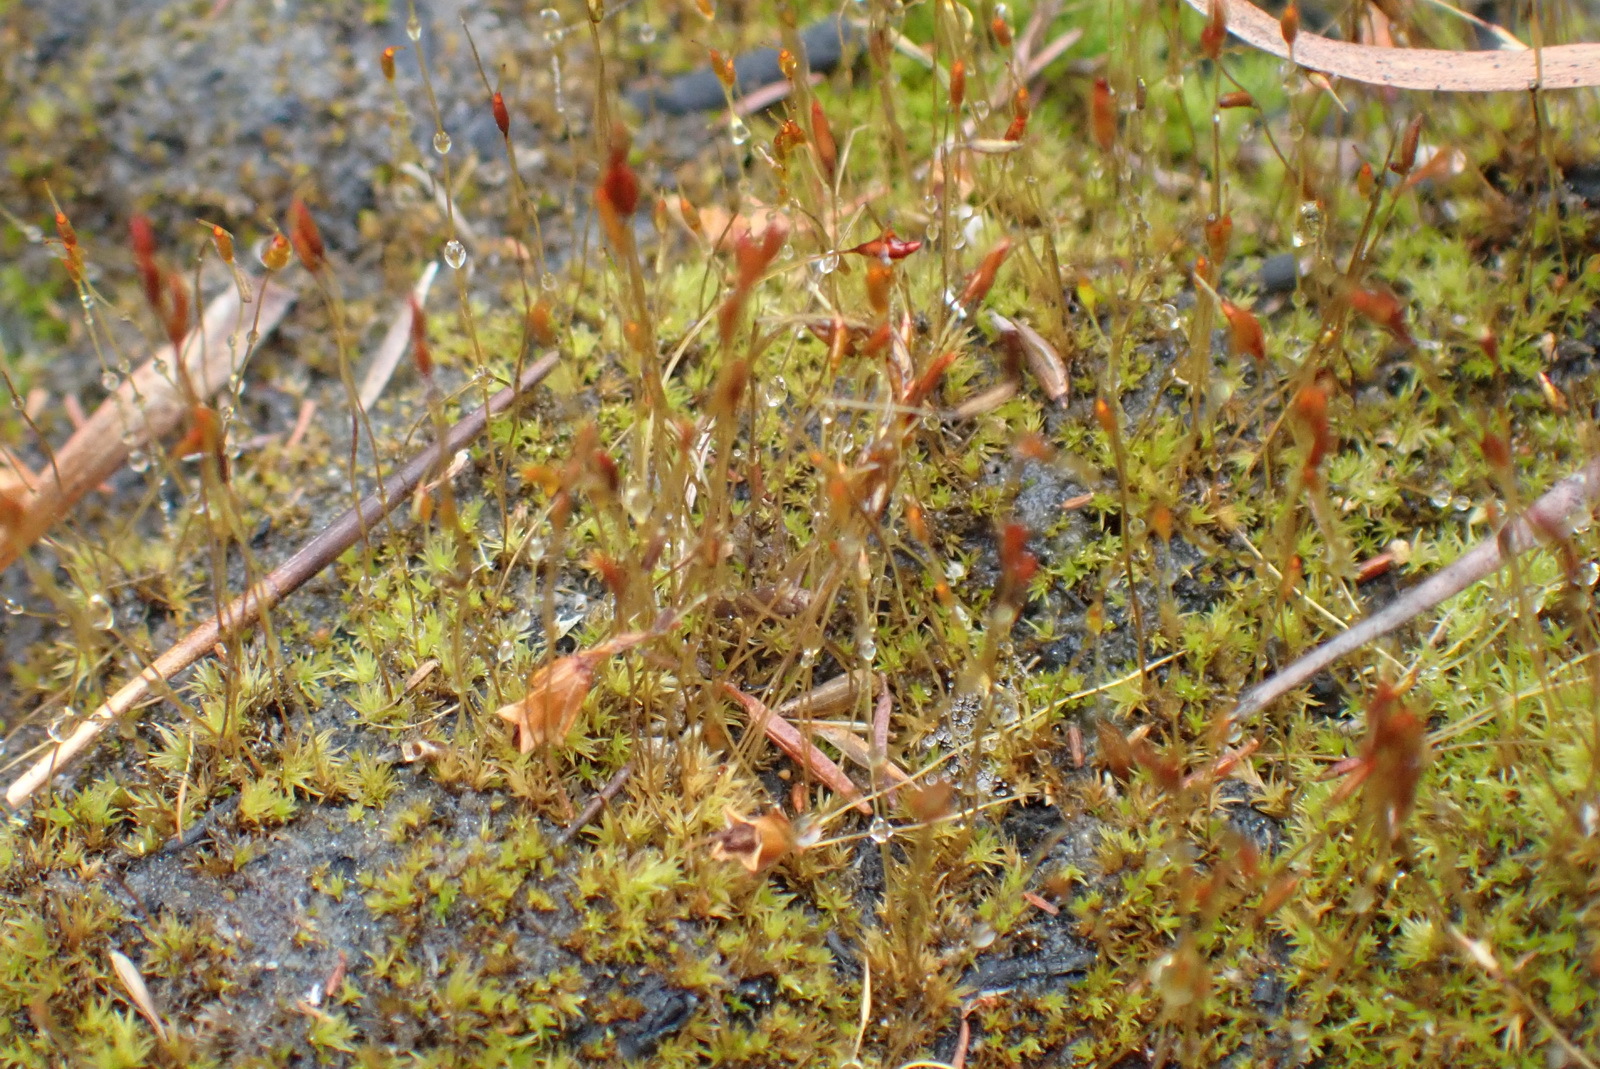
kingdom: Plantae
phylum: Bryophyta
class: Bryopsida
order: Dicranales
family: Ditrichaceae
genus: Ceratodon
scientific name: Ceratodon purpureus
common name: Redshank
